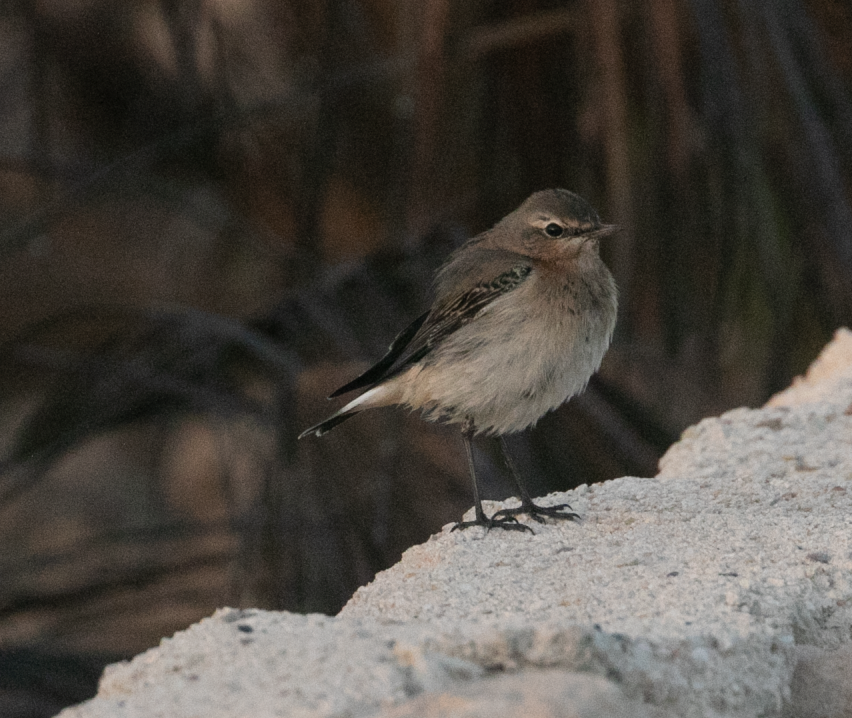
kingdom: Animalia
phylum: Chordata
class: Aves
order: Passeriformes
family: Muscicapidae
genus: Oenanthe
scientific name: Oenanthe oenanthe
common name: Northern wheatear
